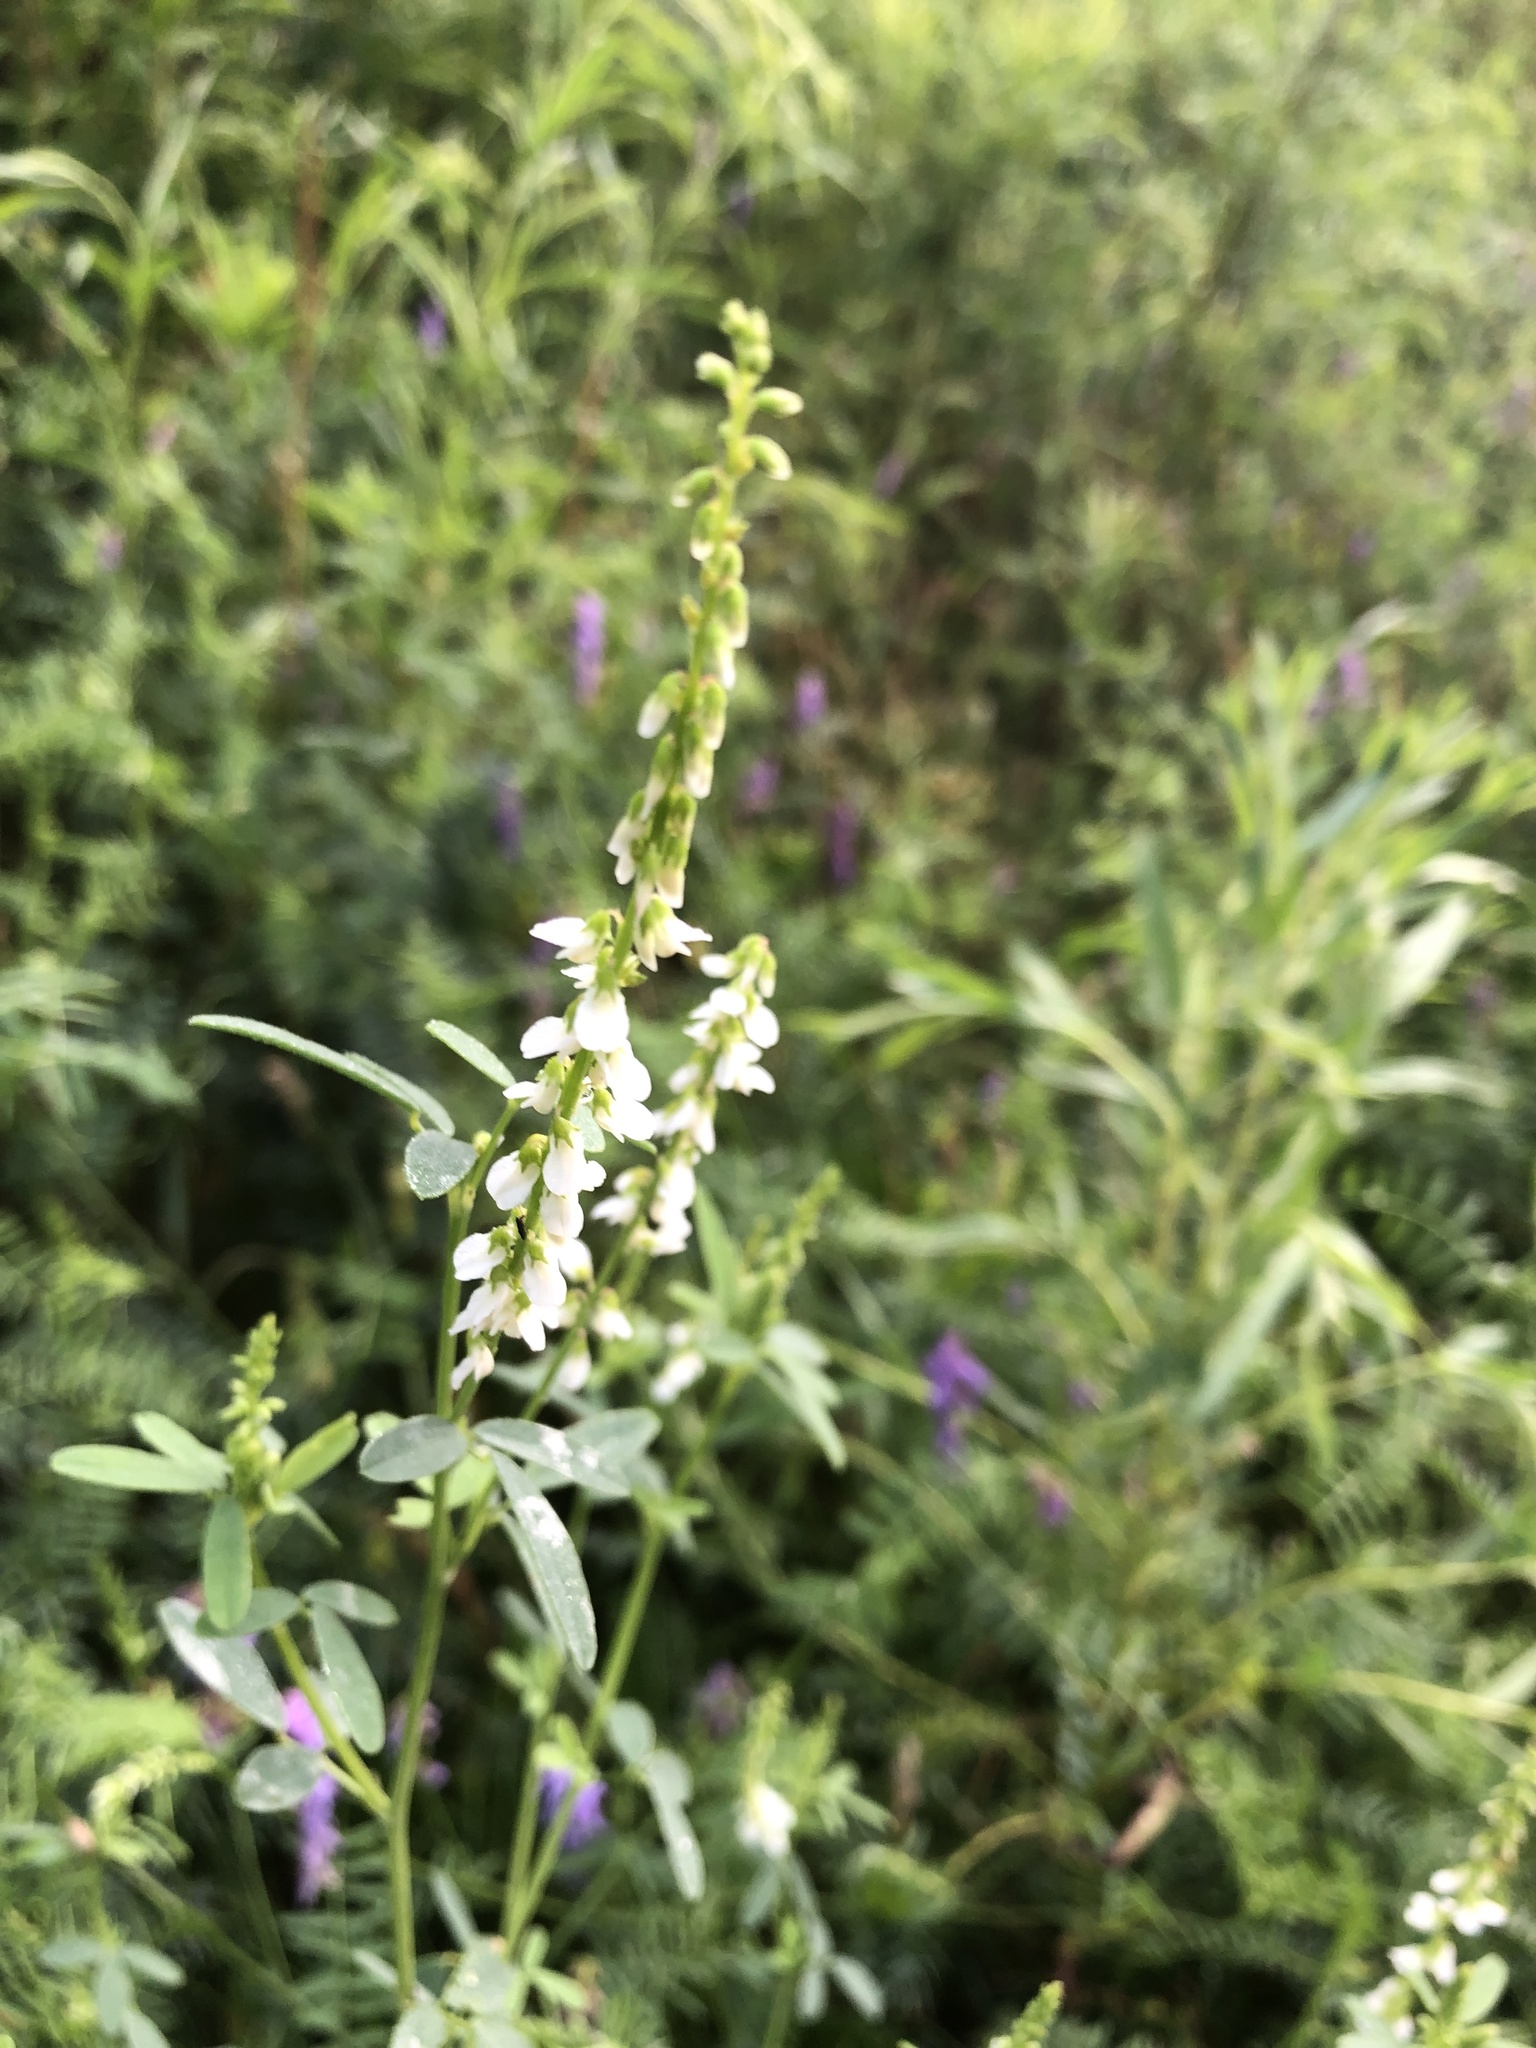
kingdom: Plantae
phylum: Tracheophyta
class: Magnoliopsida
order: Fabales
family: Fabaceae
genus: Melilotus
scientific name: Melilotus albus
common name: White melilot
